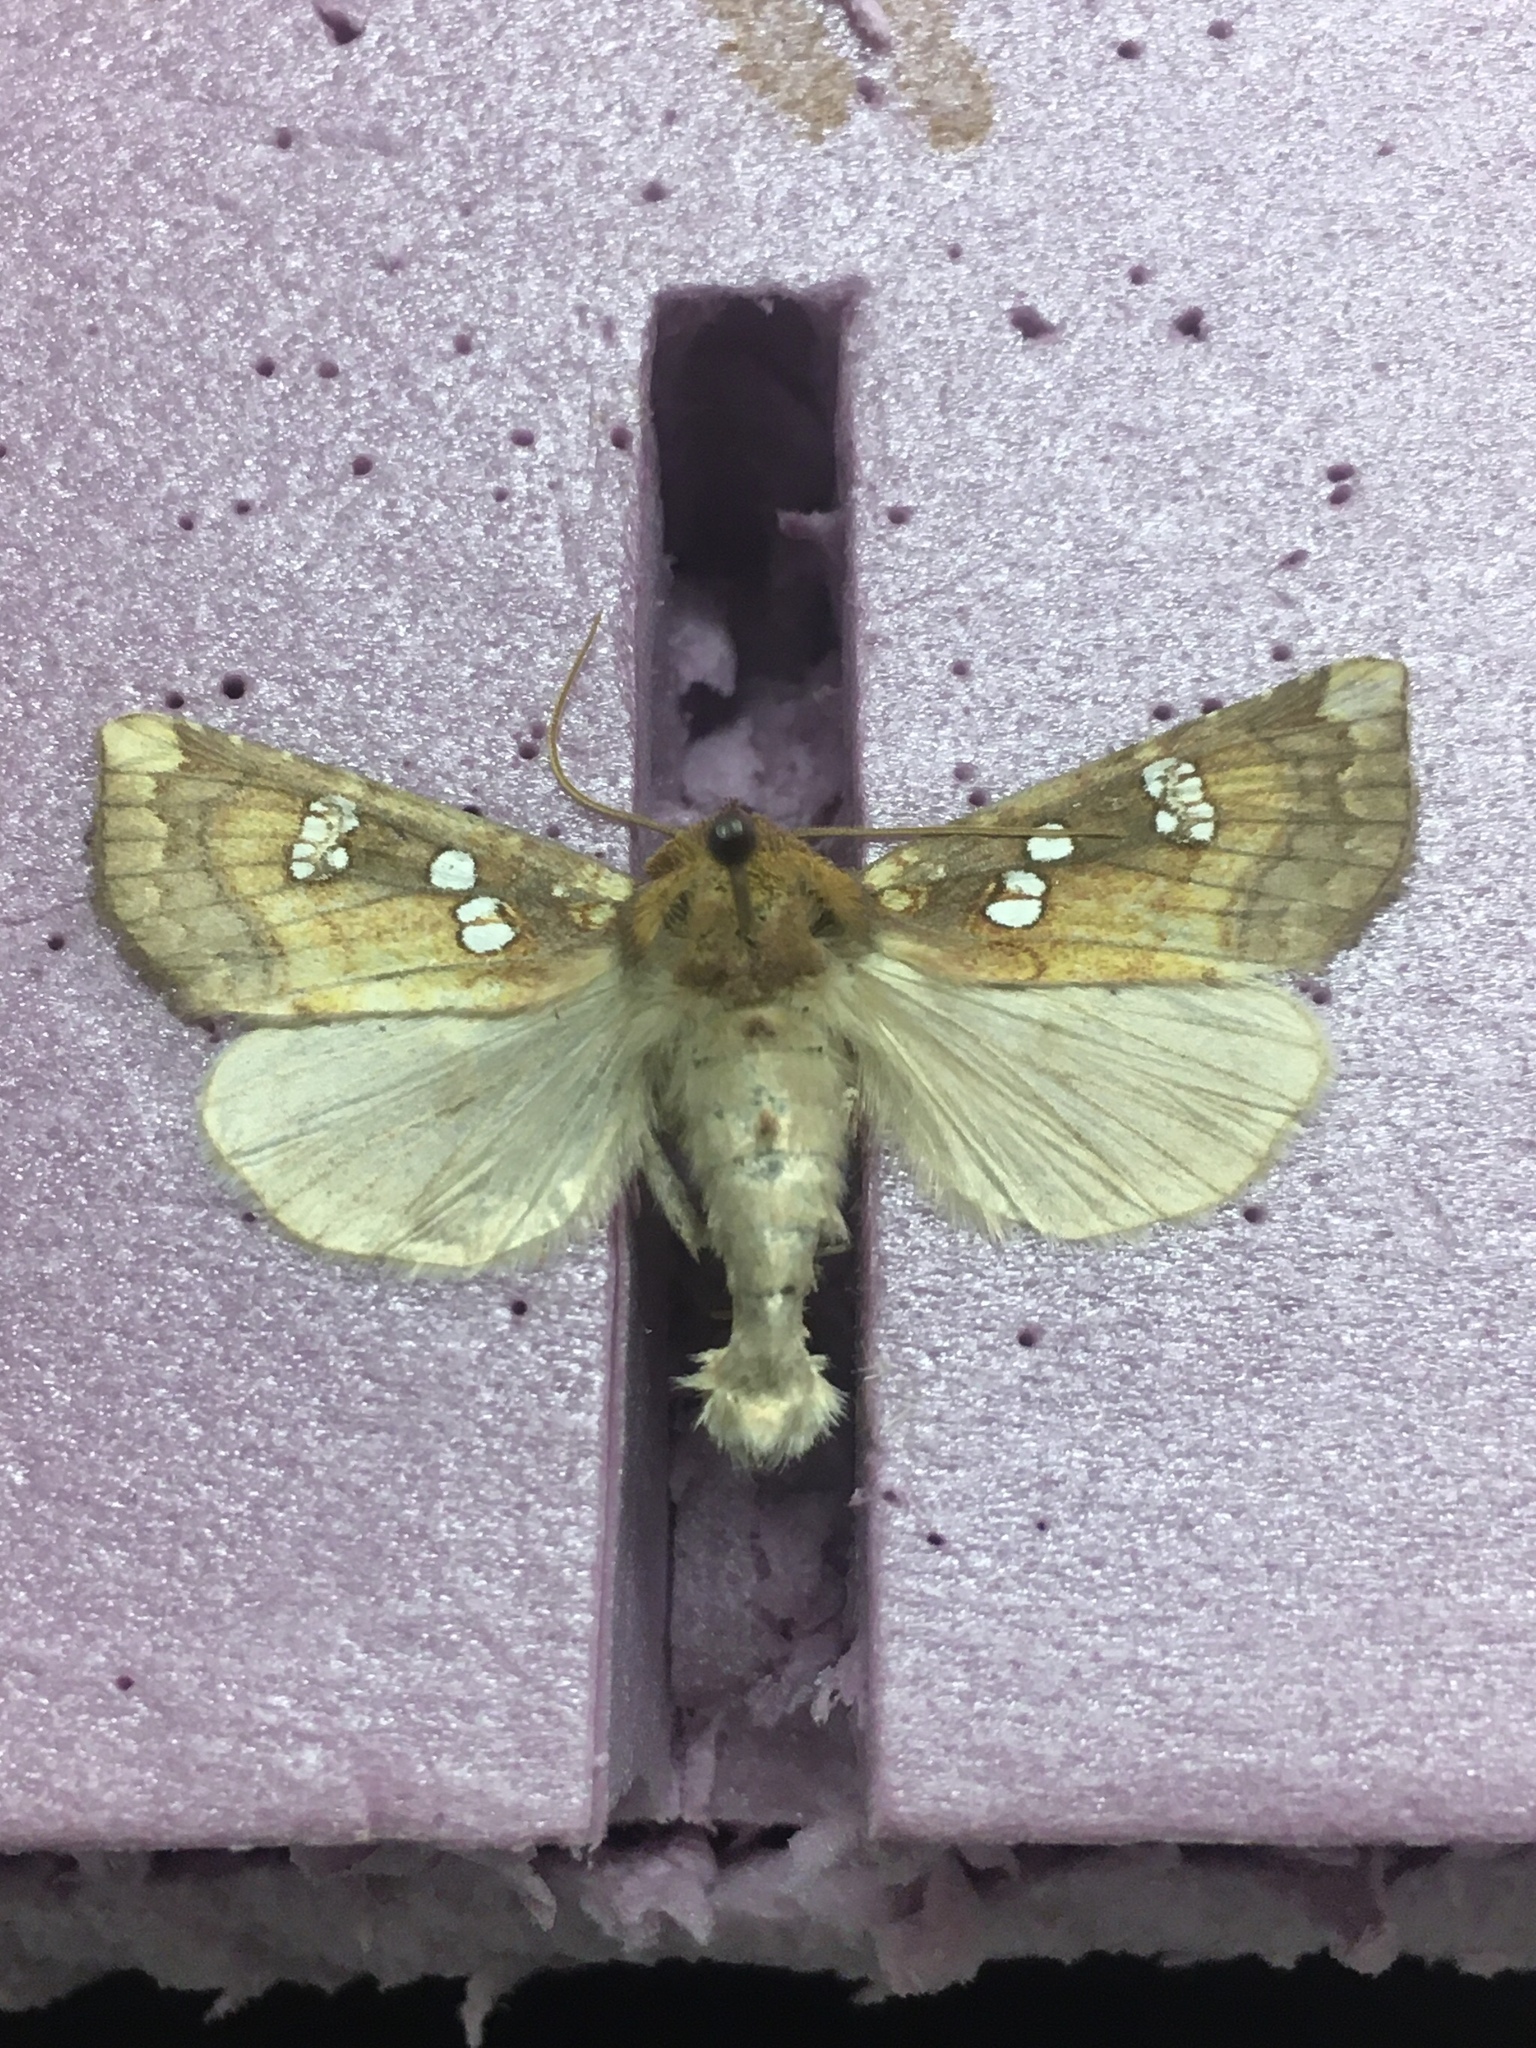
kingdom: Animalia
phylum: Arthropoda
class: Insecta
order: Lepidoptera
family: Noctuidae
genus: Papaipema
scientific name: Papaipema baptisiae
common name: Wild indigo borer moth
